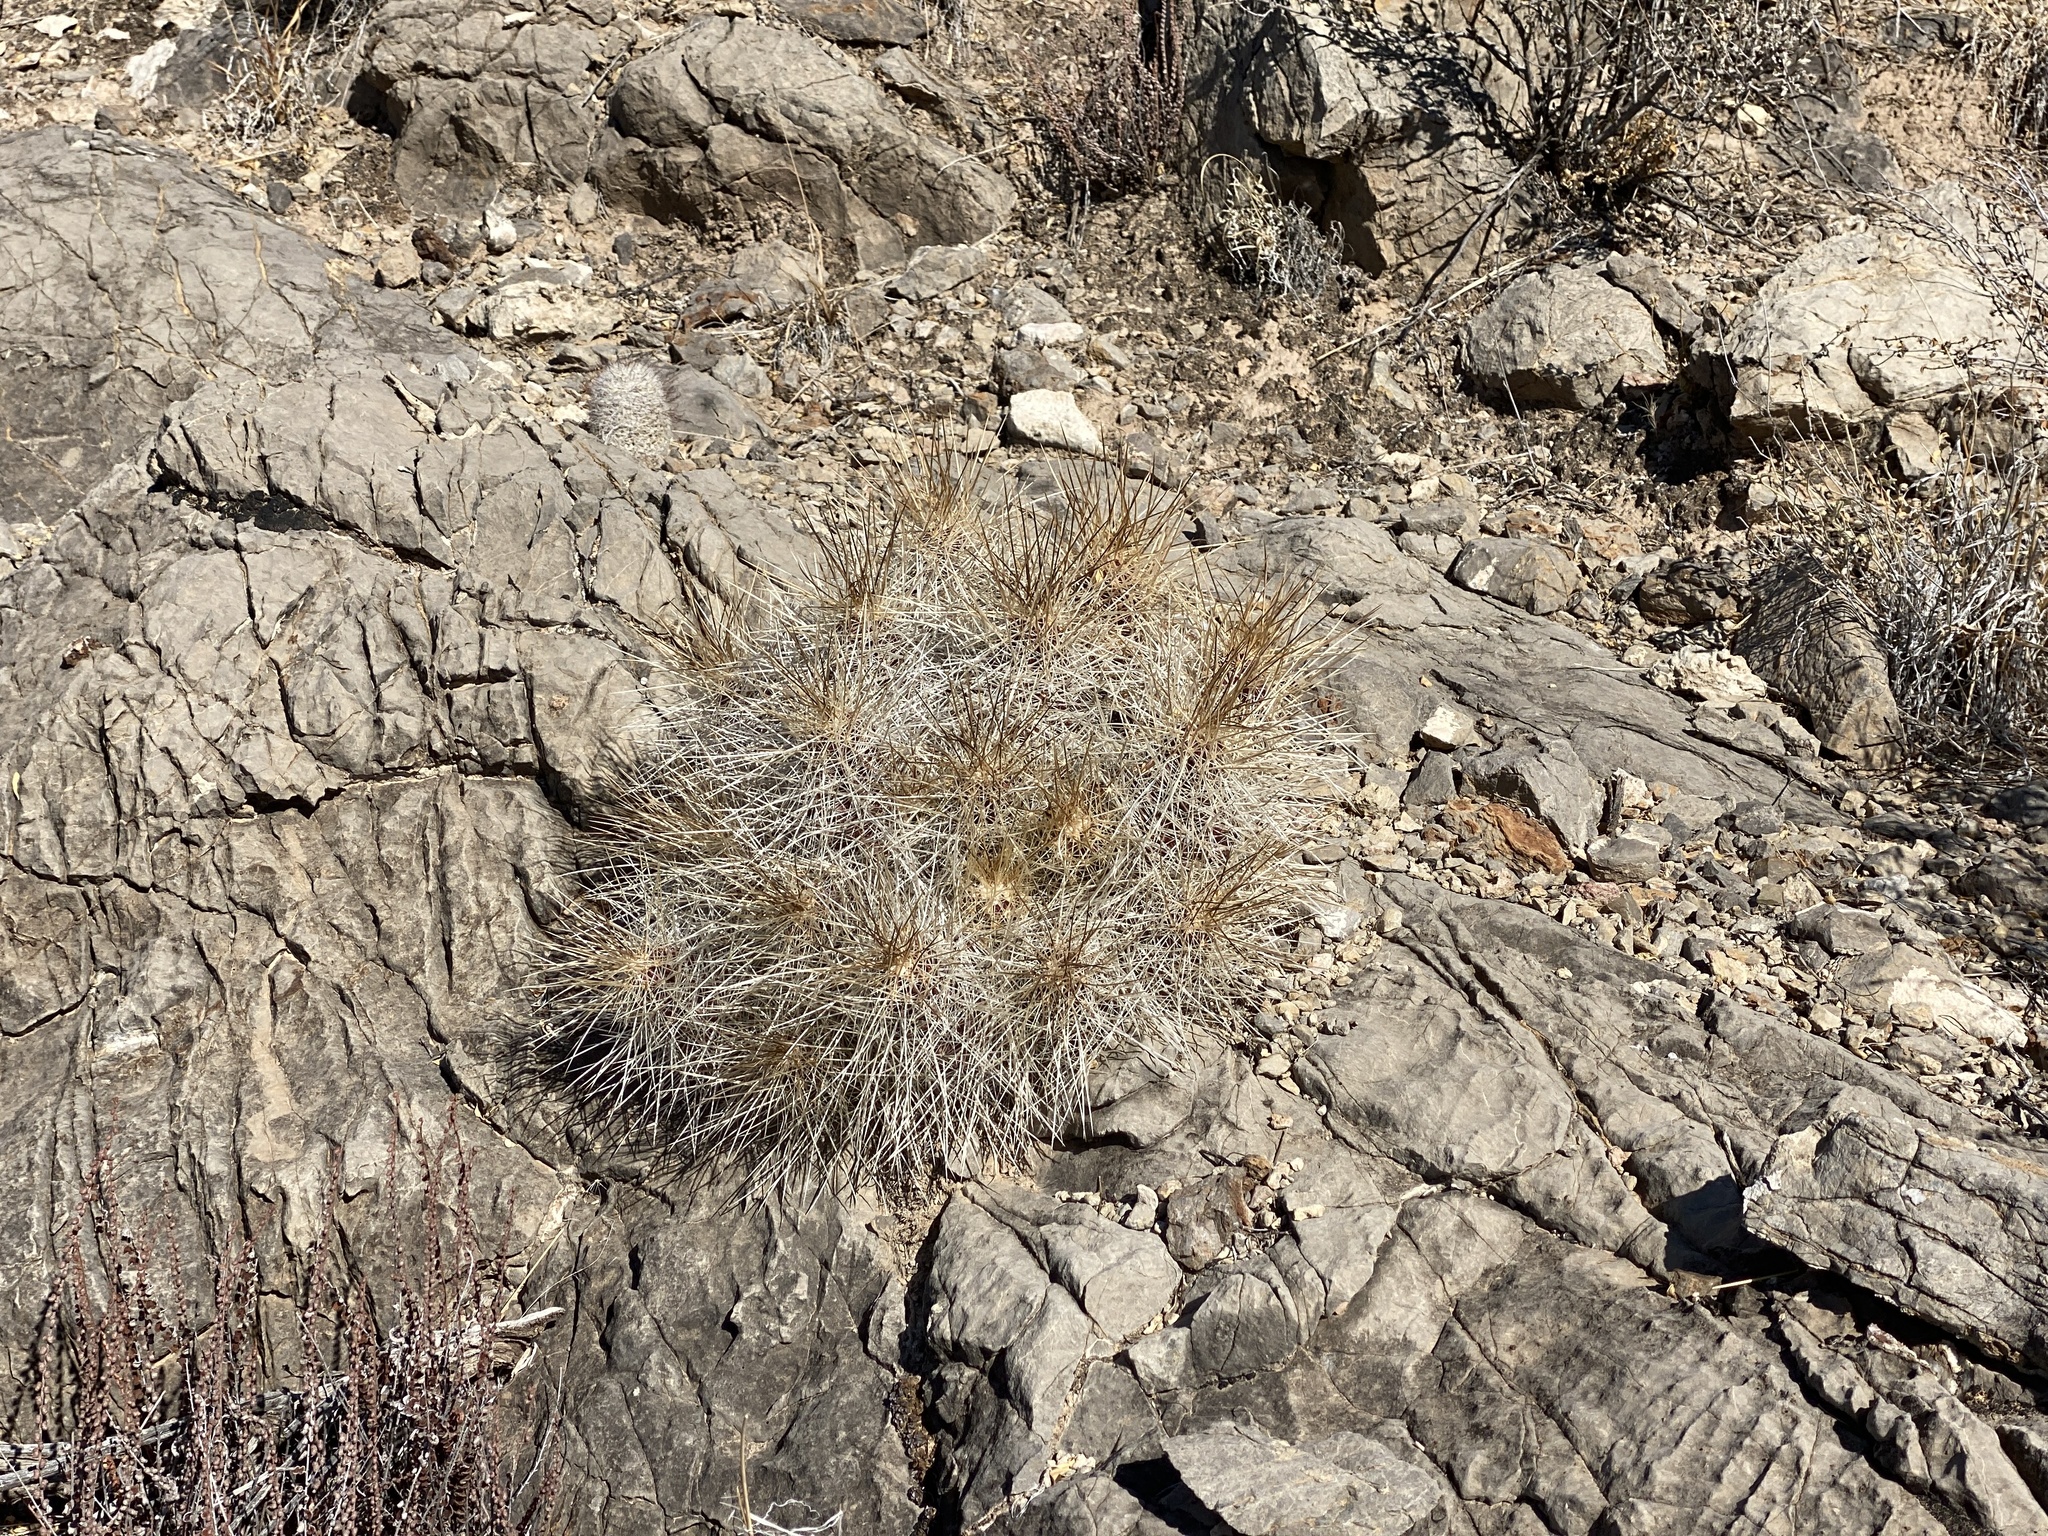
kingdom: Plantae
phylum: Tracheophyta
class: Magnoliopsida
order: Caryophyllales
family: Cactaceae
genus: Echinocereus
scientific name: Echinocereus stramineus
